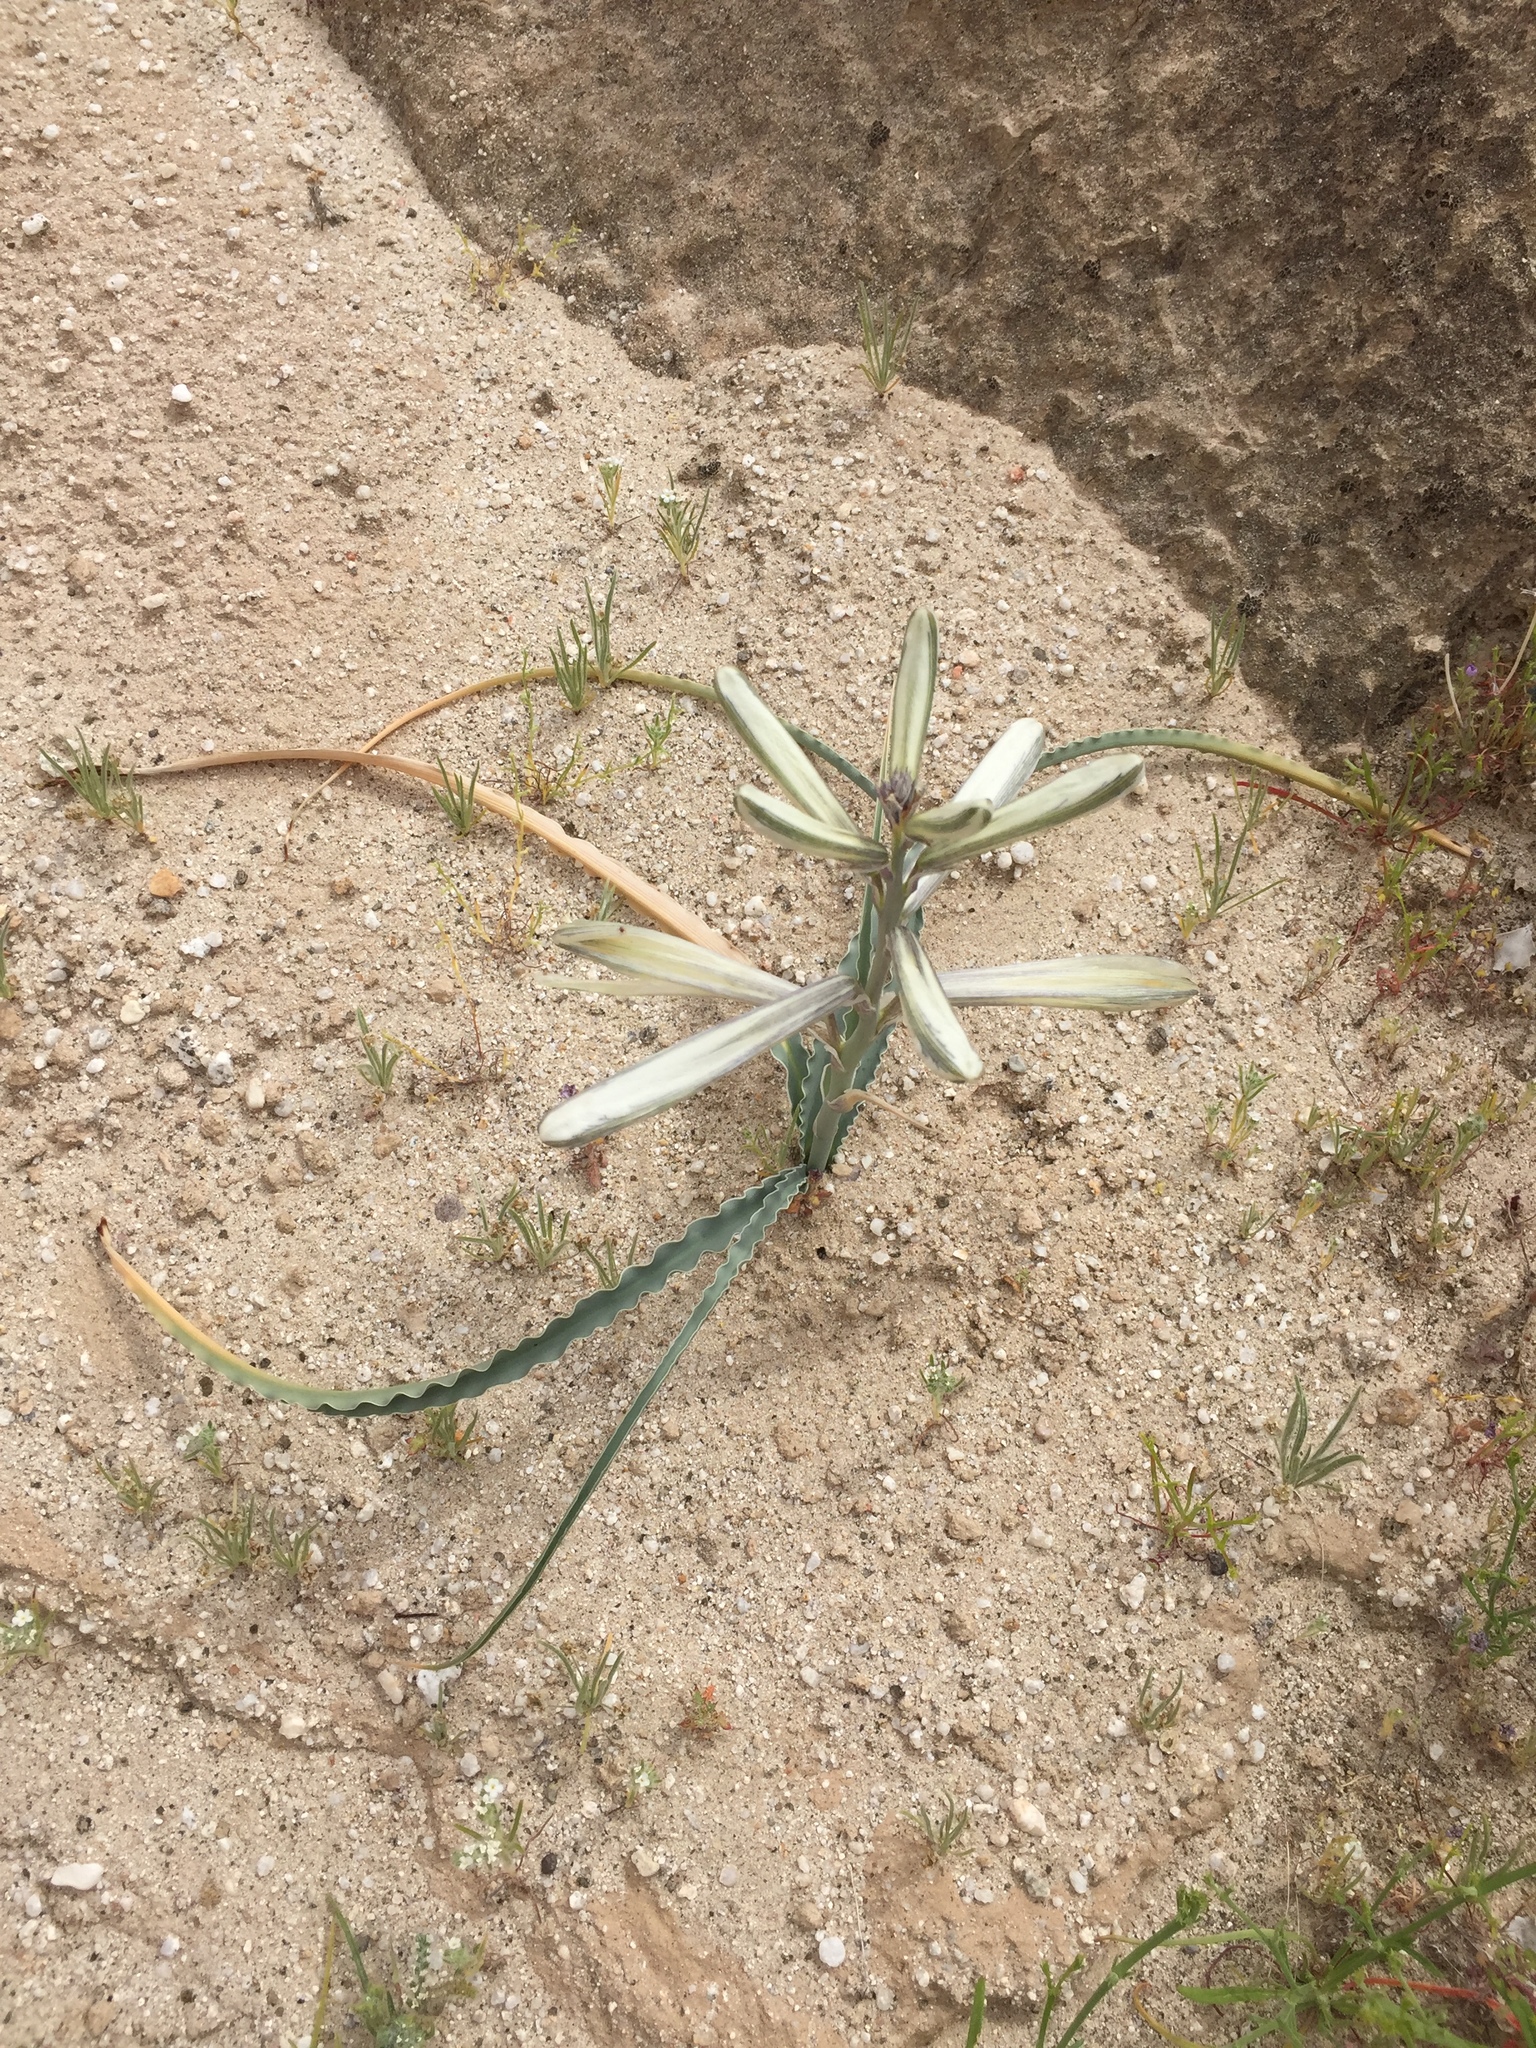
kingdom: Plantae
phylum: Tracheophyta
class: Liliopsida
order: Asparagales
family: Asparagaceae
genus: Hesperocallis
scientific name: Hesperocallis undulata
